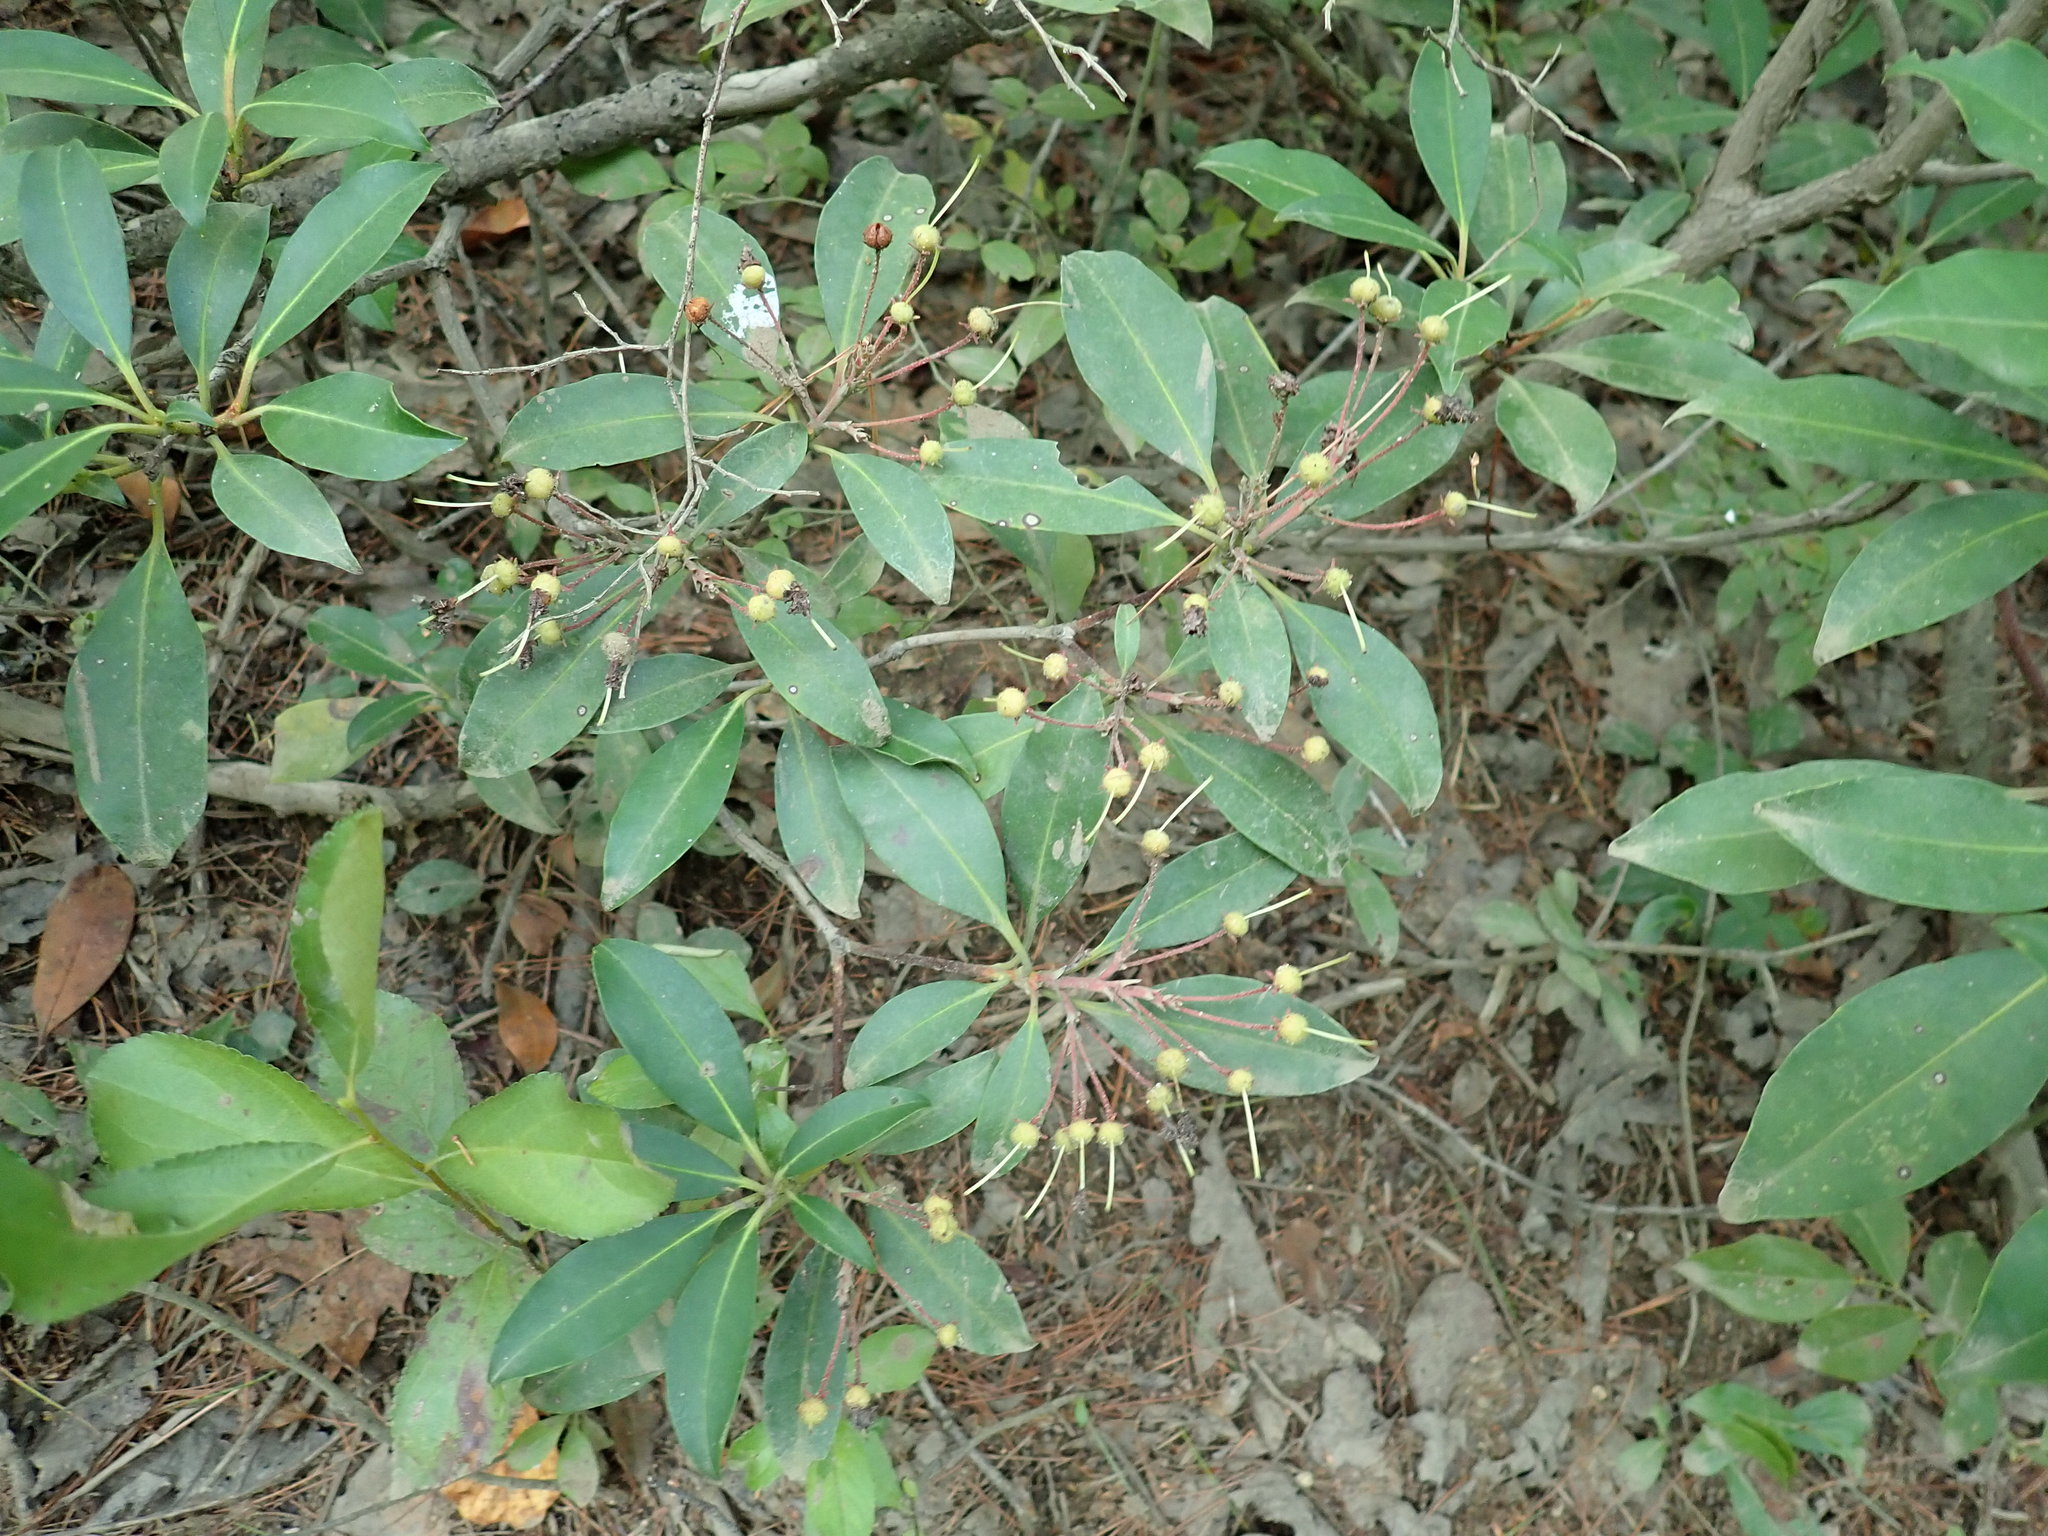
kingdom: Plantae
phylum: Tracheophyta
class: Magnoliopsida
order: Ericales
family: Ericaceae
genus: Kalmia
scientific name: Kalmia latifolia
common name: Mountain-laurel
